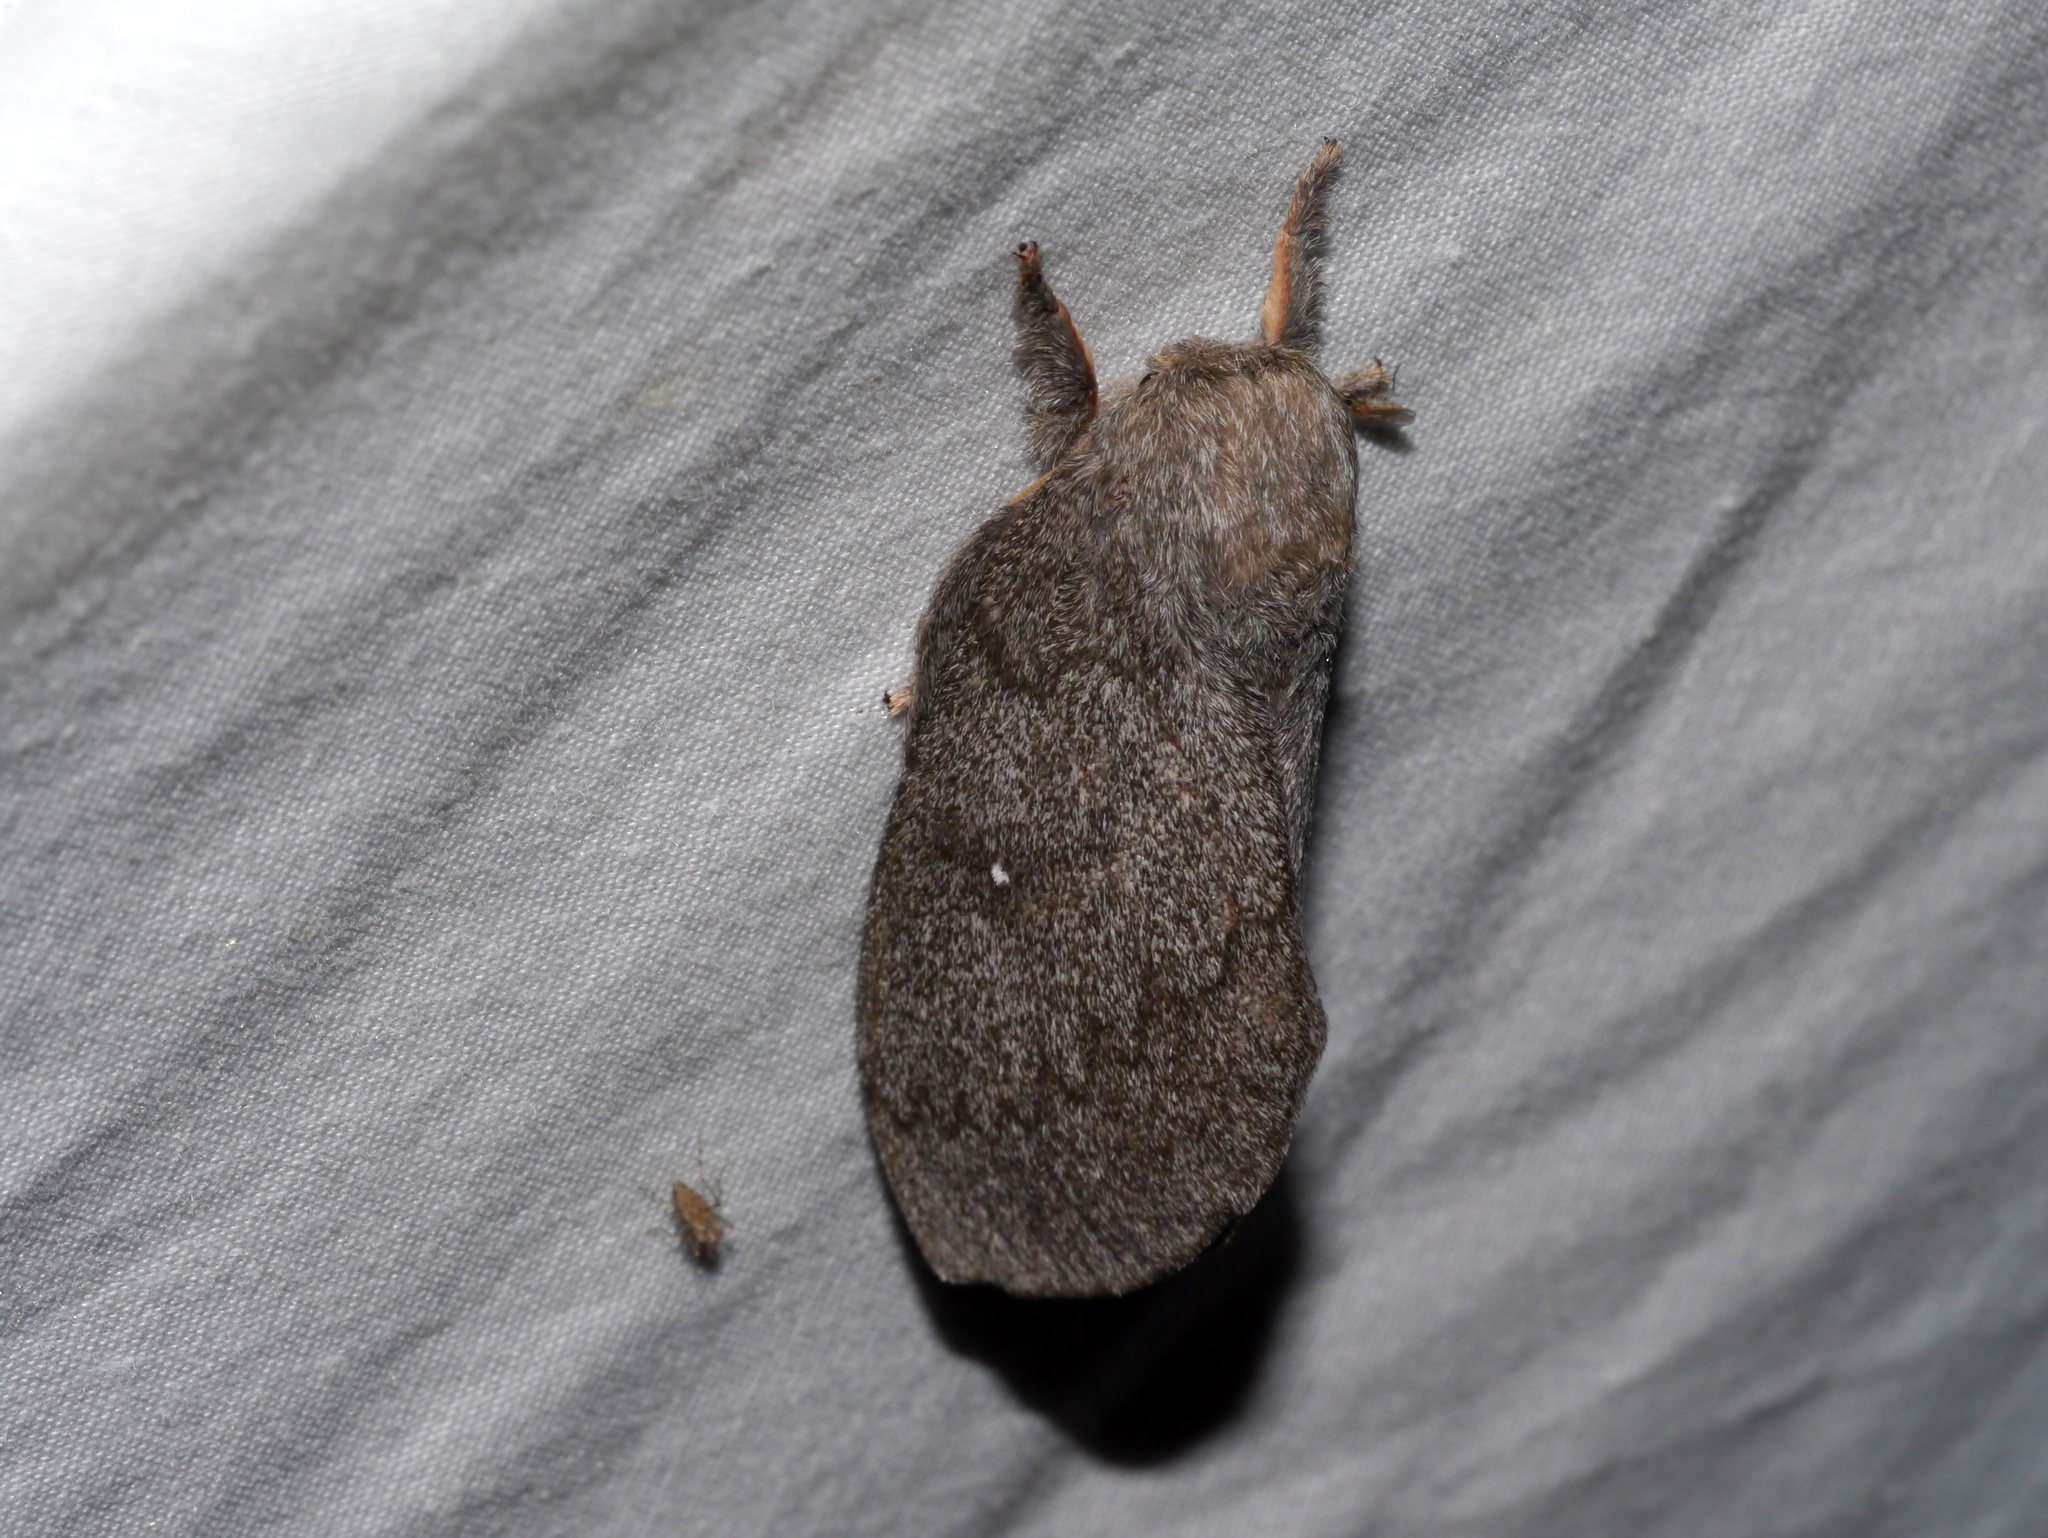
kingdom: Animalia
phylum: Arthropoda
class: Insecta
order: Lepidoptera
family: Saturniidae
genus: Syssphinx
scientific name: Syssphinx hubbardi
